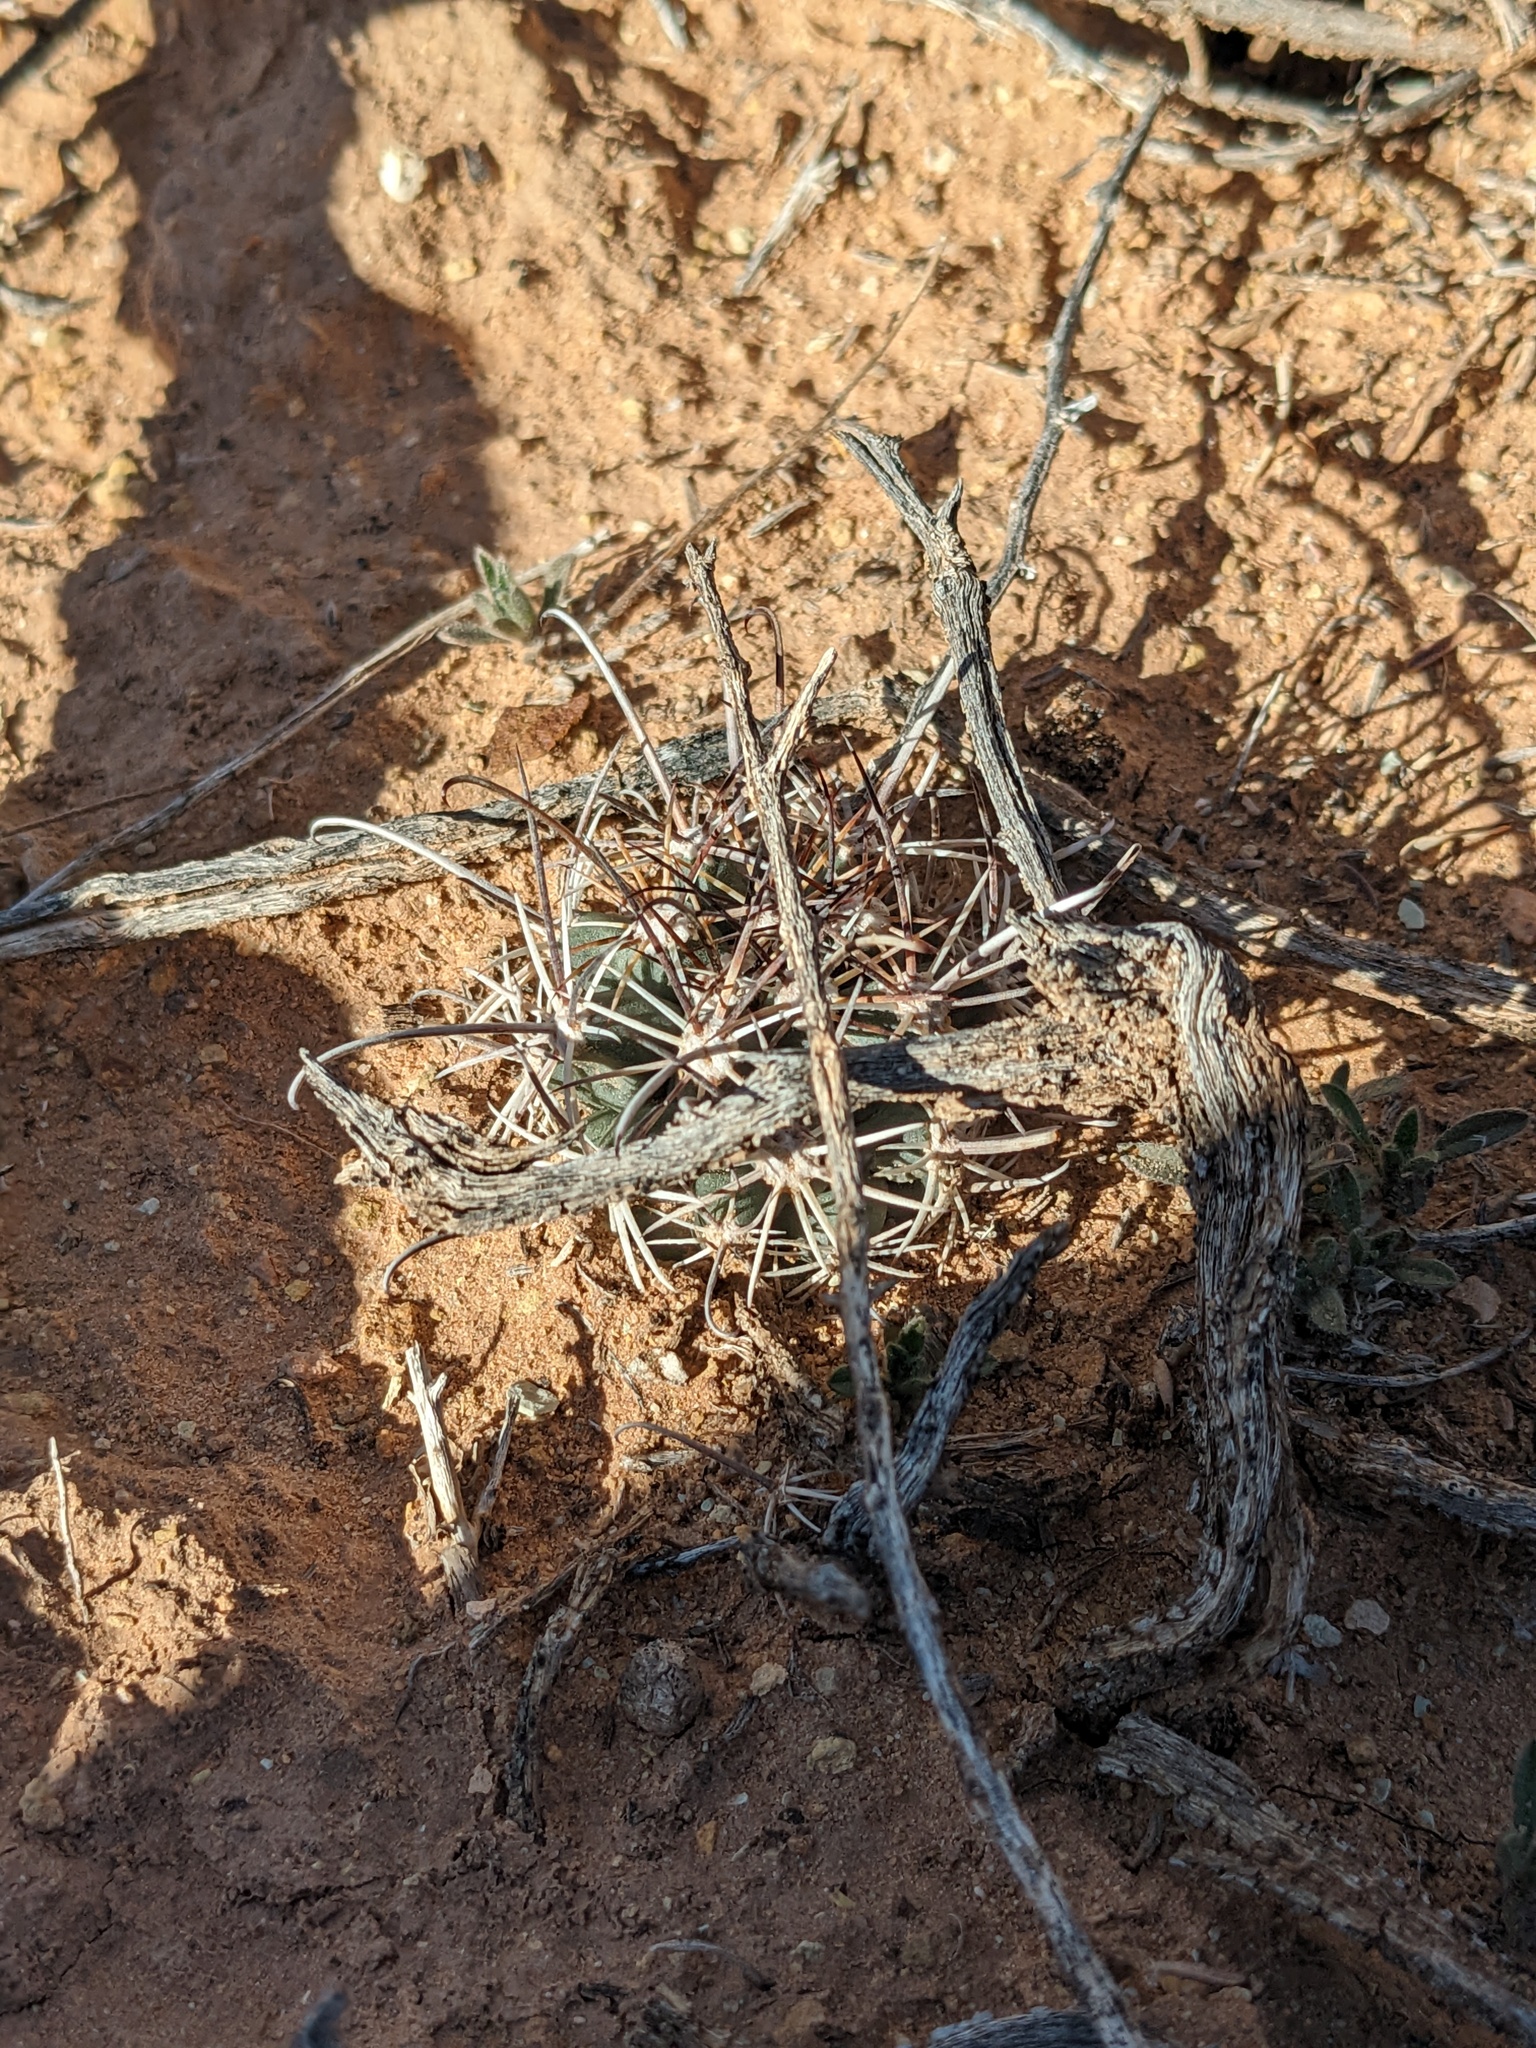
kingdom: Plantae
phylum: Tracheophyta
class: Magnoliopsida
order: Caryophyllales
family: Cactaceae
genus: Sclerocactus
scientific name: Sclerocactus parviflorus
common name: Small-flower fishhook cactus
